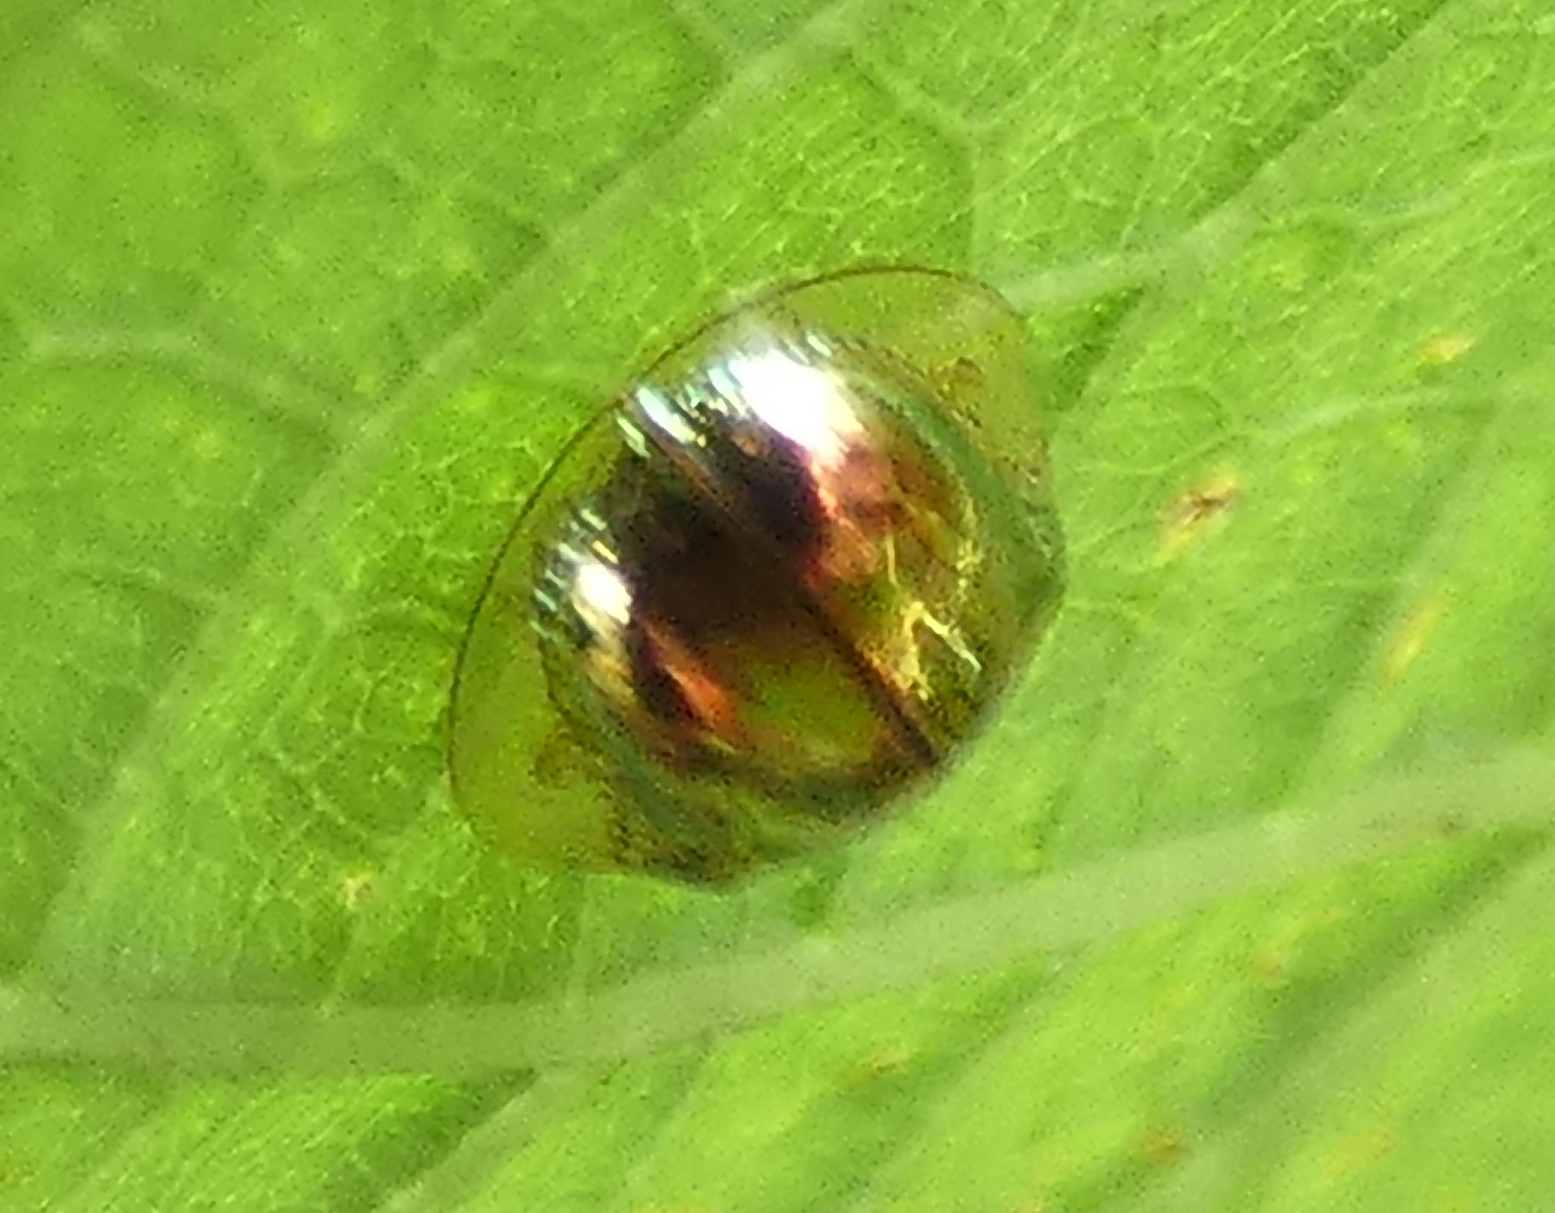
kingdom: Animalia
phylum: Arthropoda
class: Insecta
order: Coleoptera
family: Chrysomelidae
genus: Charidotella
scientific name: Charidotella zona
